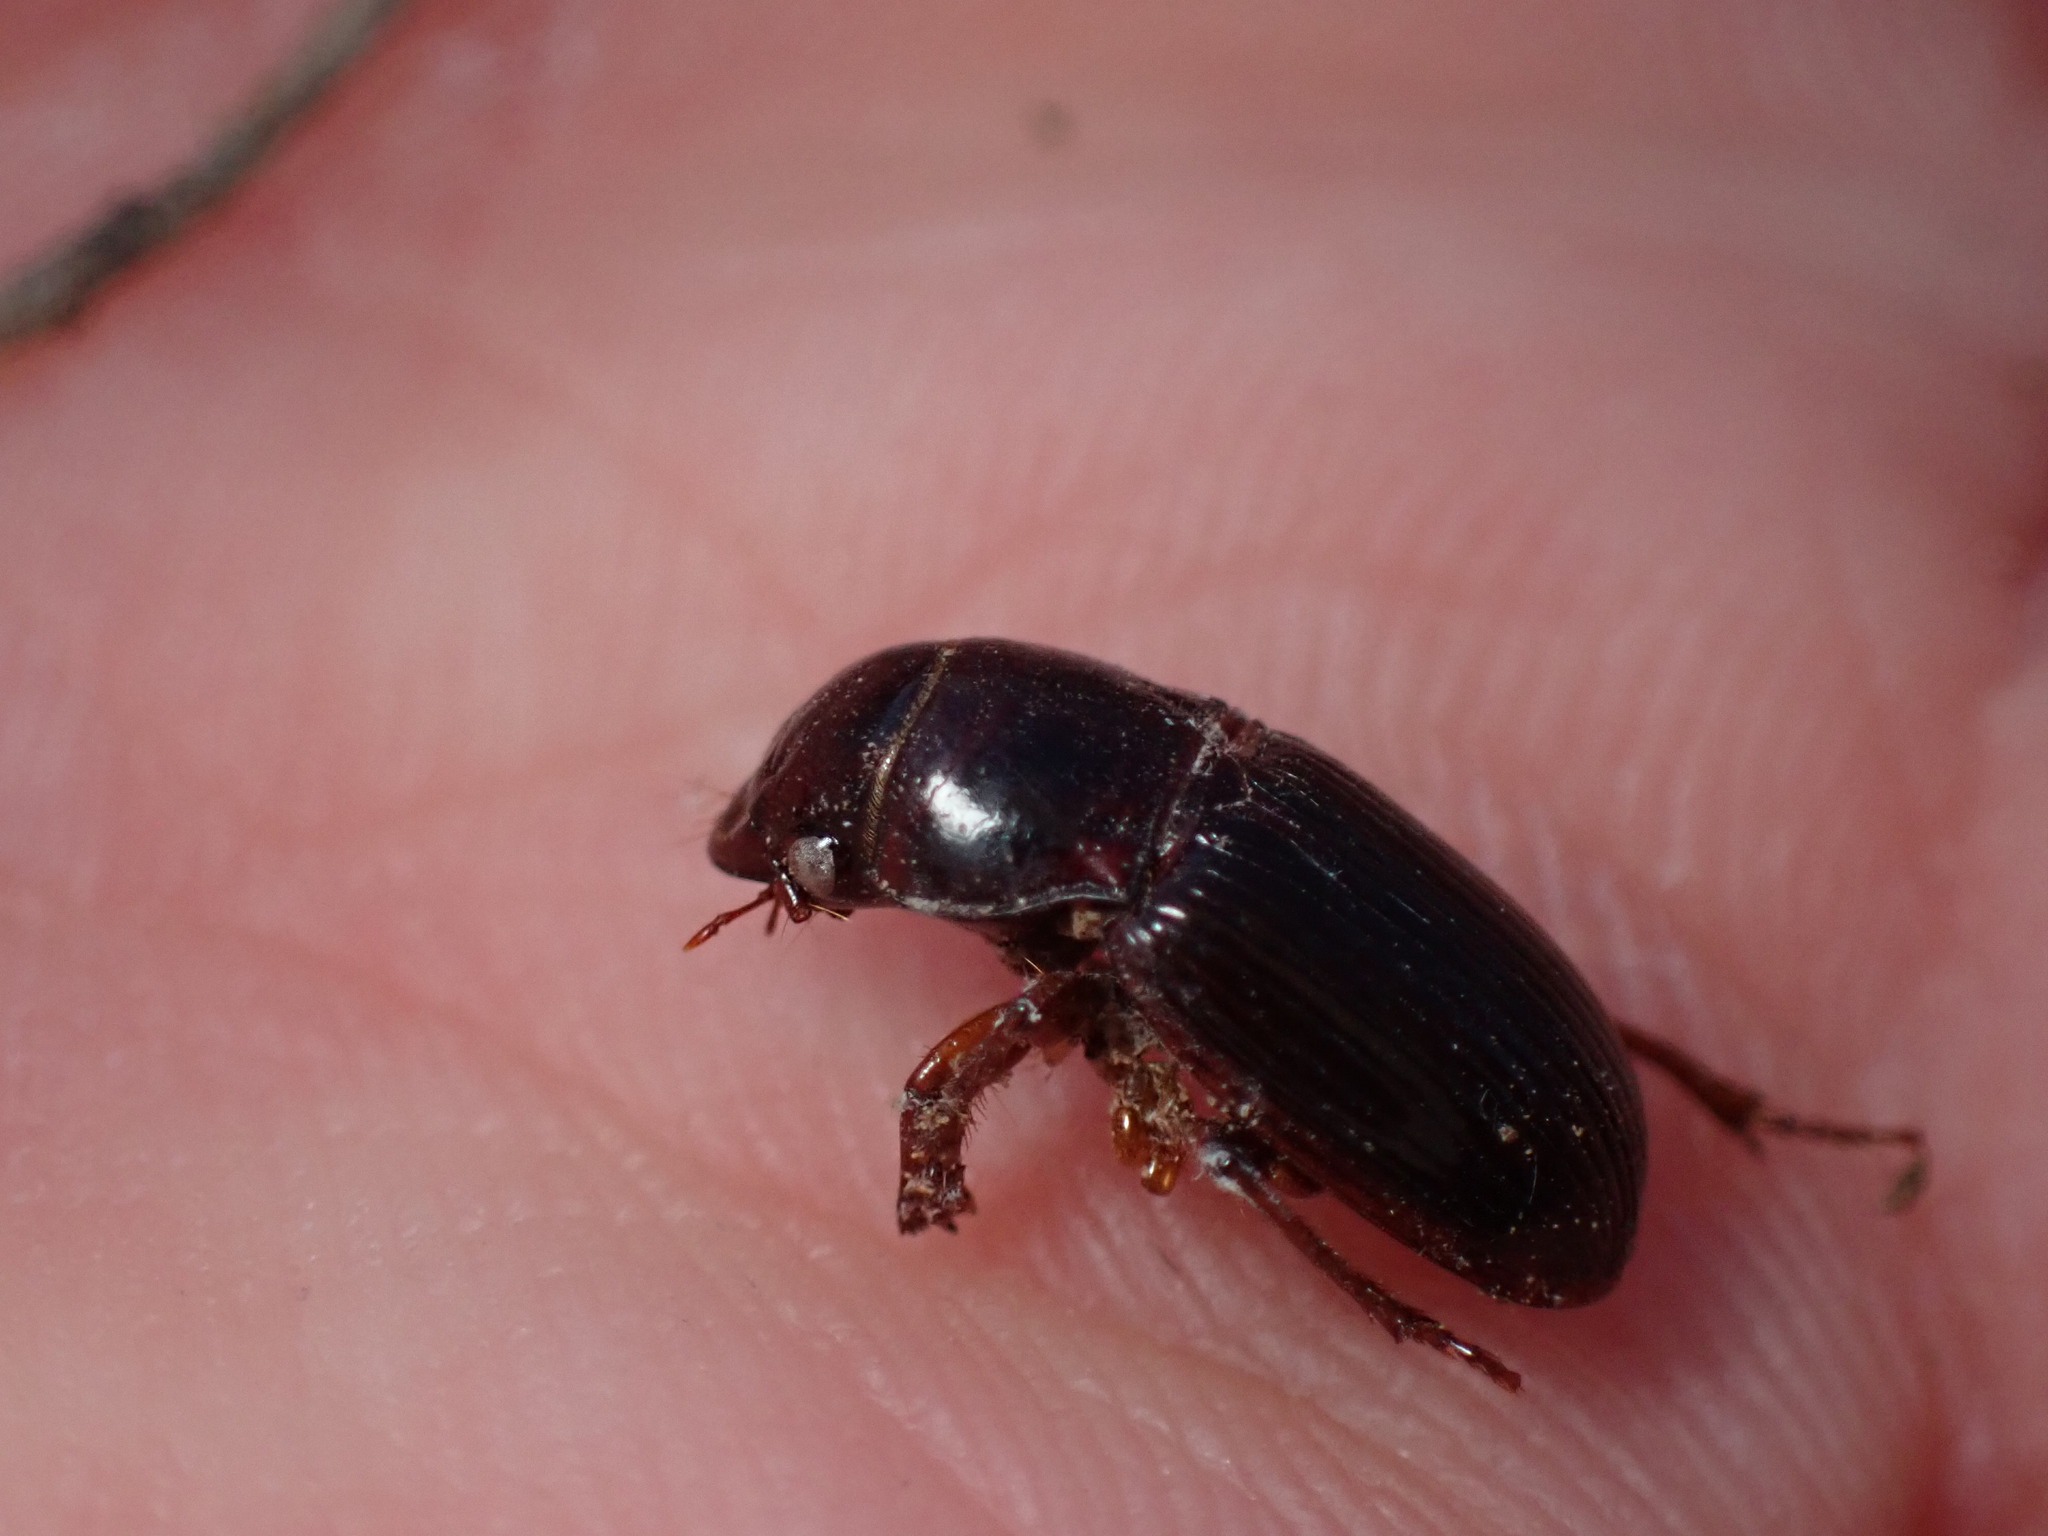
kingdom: Animalia
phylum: Arthropoda
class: Insecta
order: Coleoptera
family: Carabidae
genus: Cratacanthus
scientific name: Cratacanthus dubius
